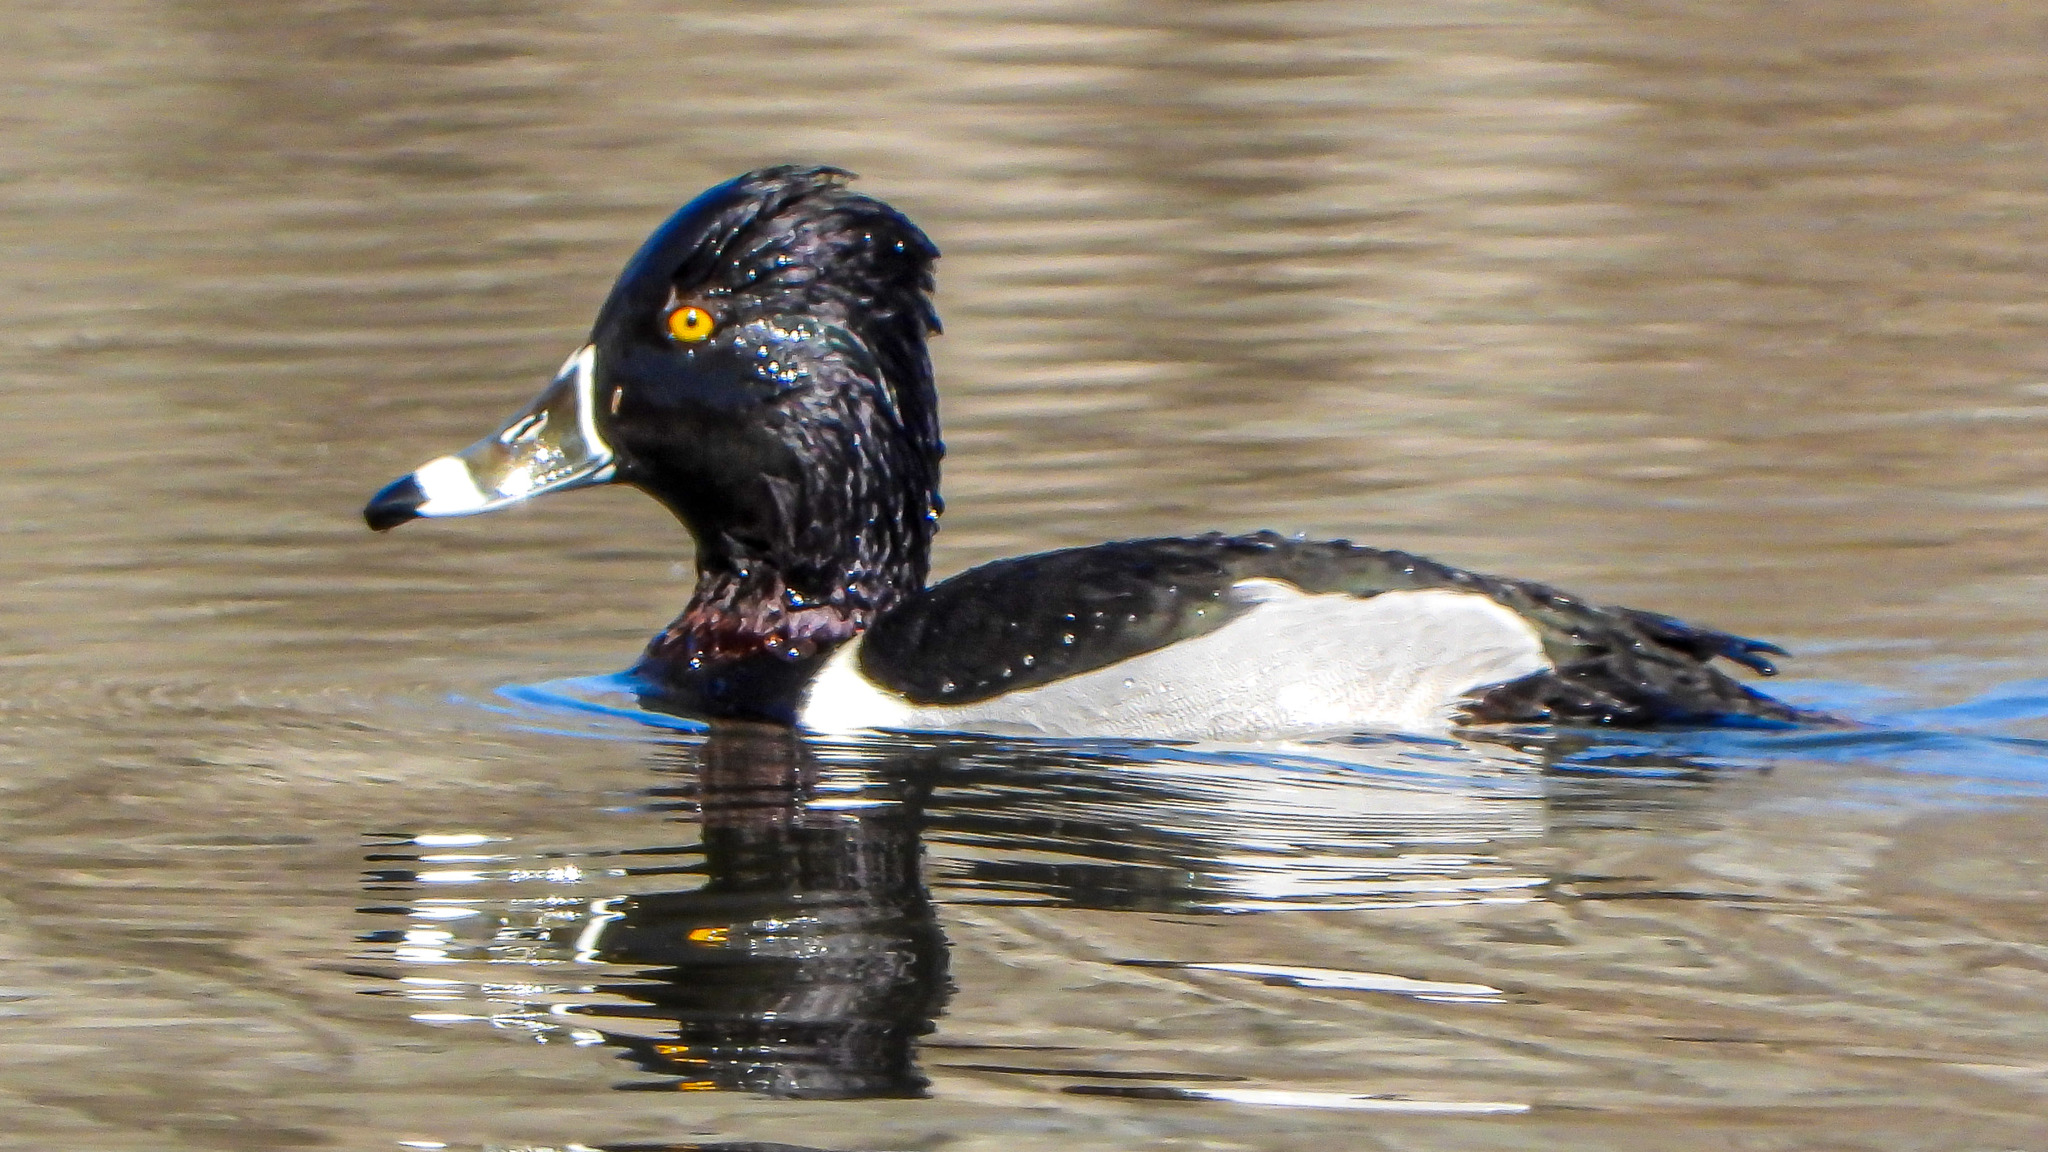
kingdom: Animalia
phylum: Chordata
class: Aves
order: Anseriformes
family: Anatidae
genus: Aythya
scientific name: Aythya collaris
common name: Ring-necked duck
